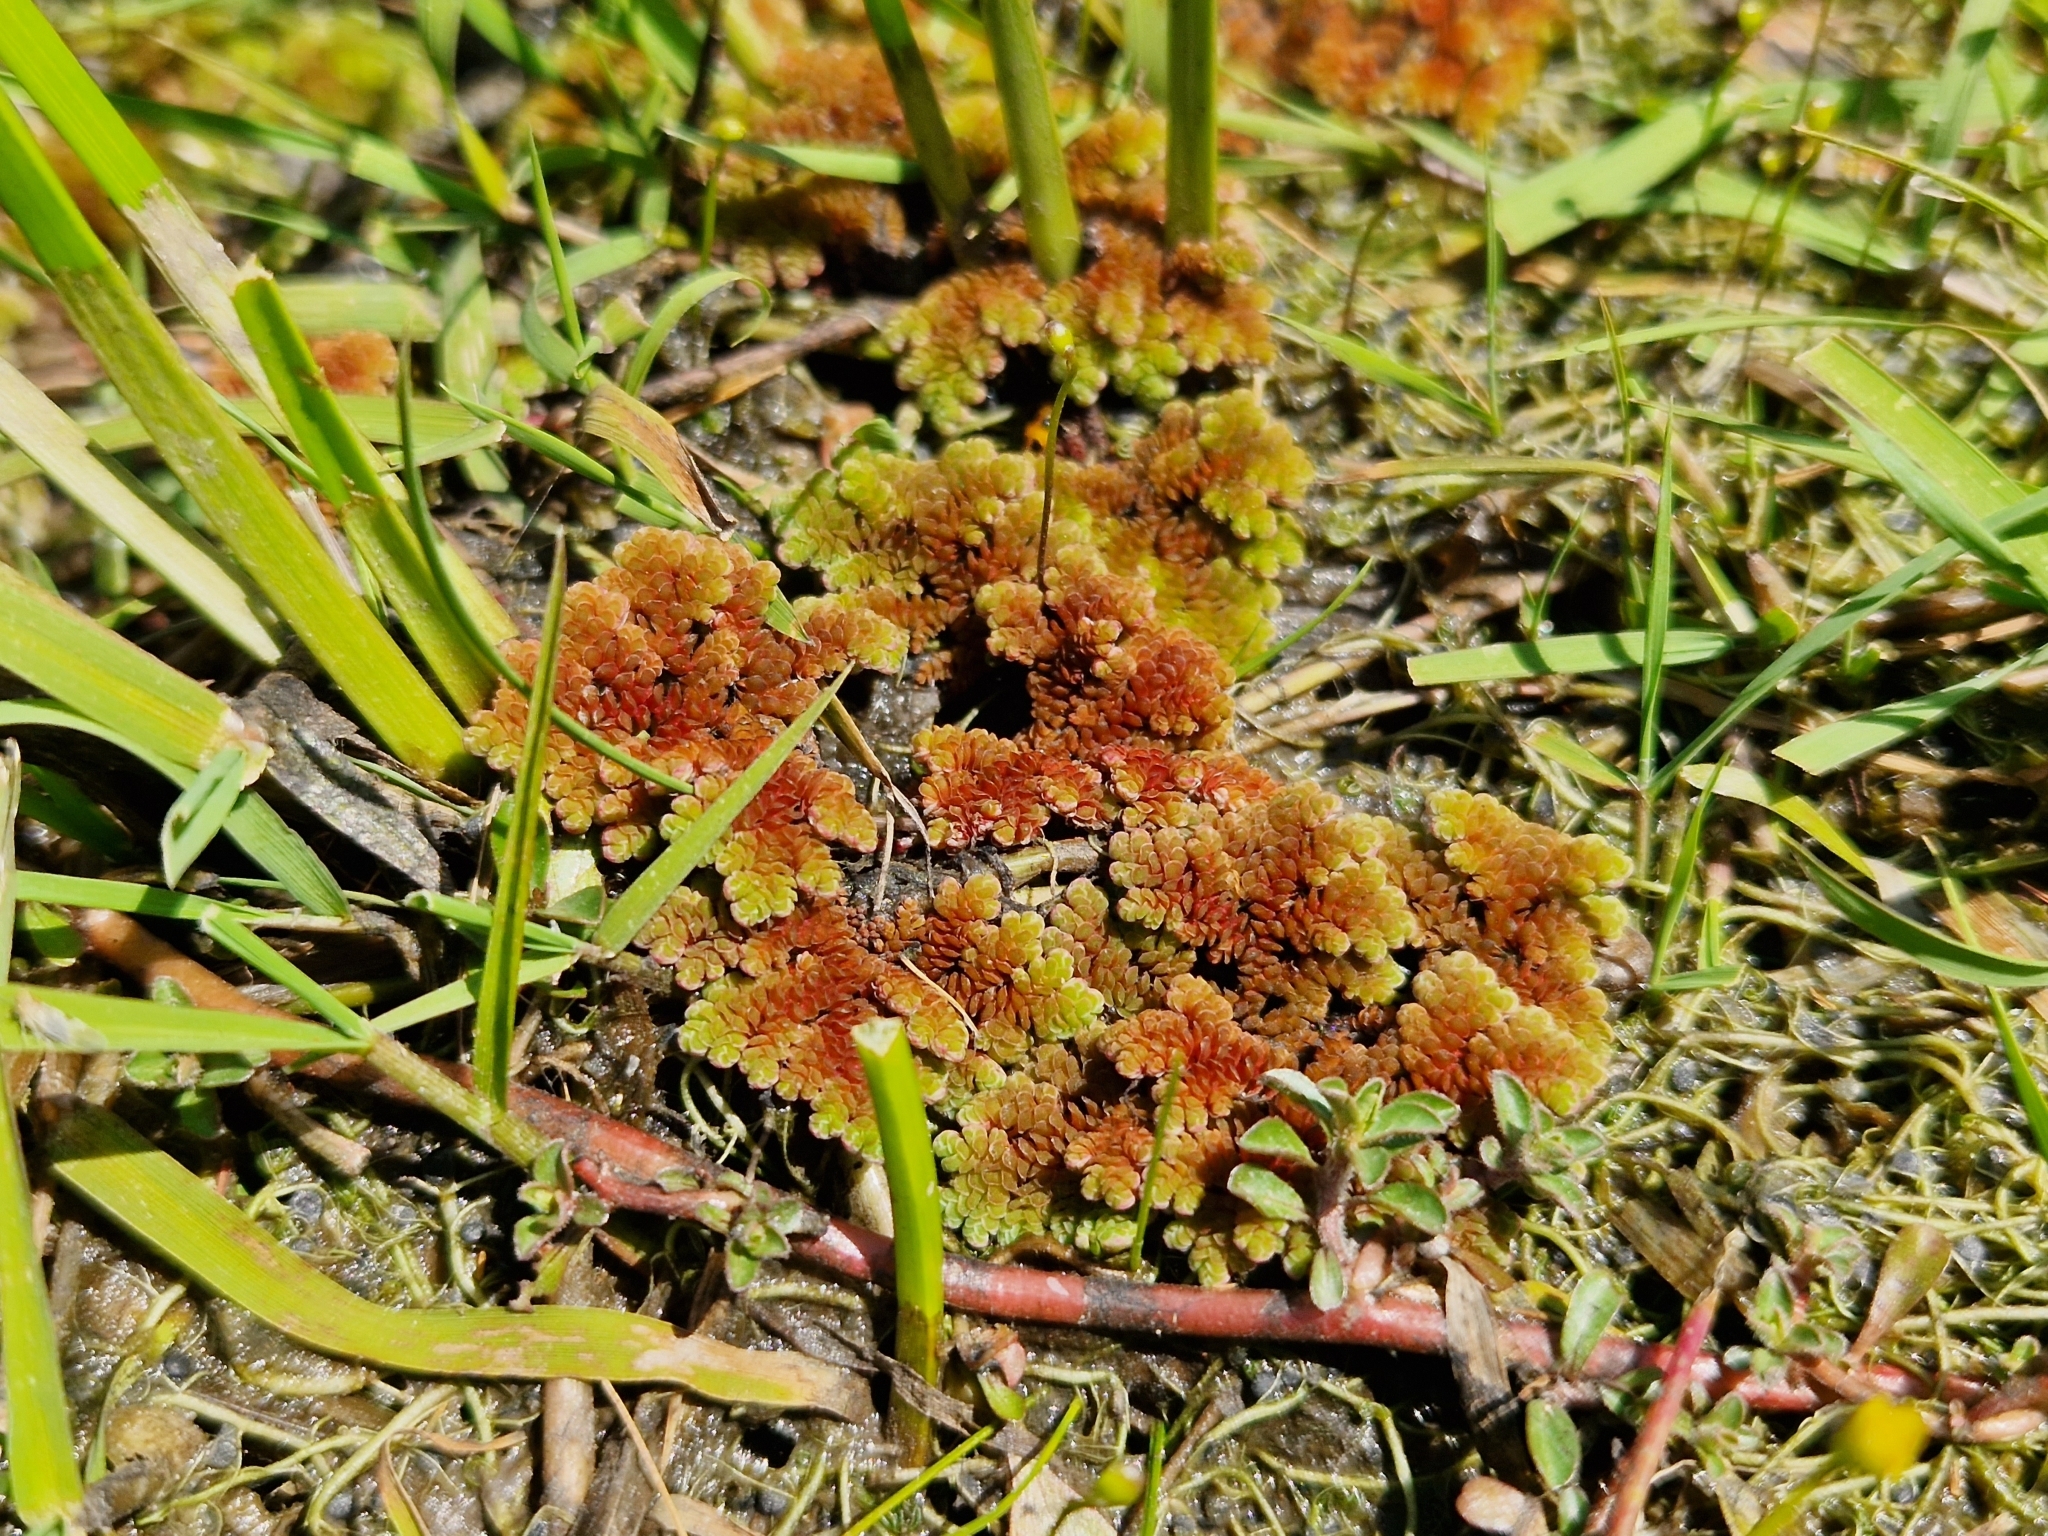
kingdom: Plantae
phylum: Tracheophyta
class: Polypodiopsida
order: Salviniales
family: Salviniaceae
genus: Azolla
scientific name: Azolla filiculoides
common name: Water fern
